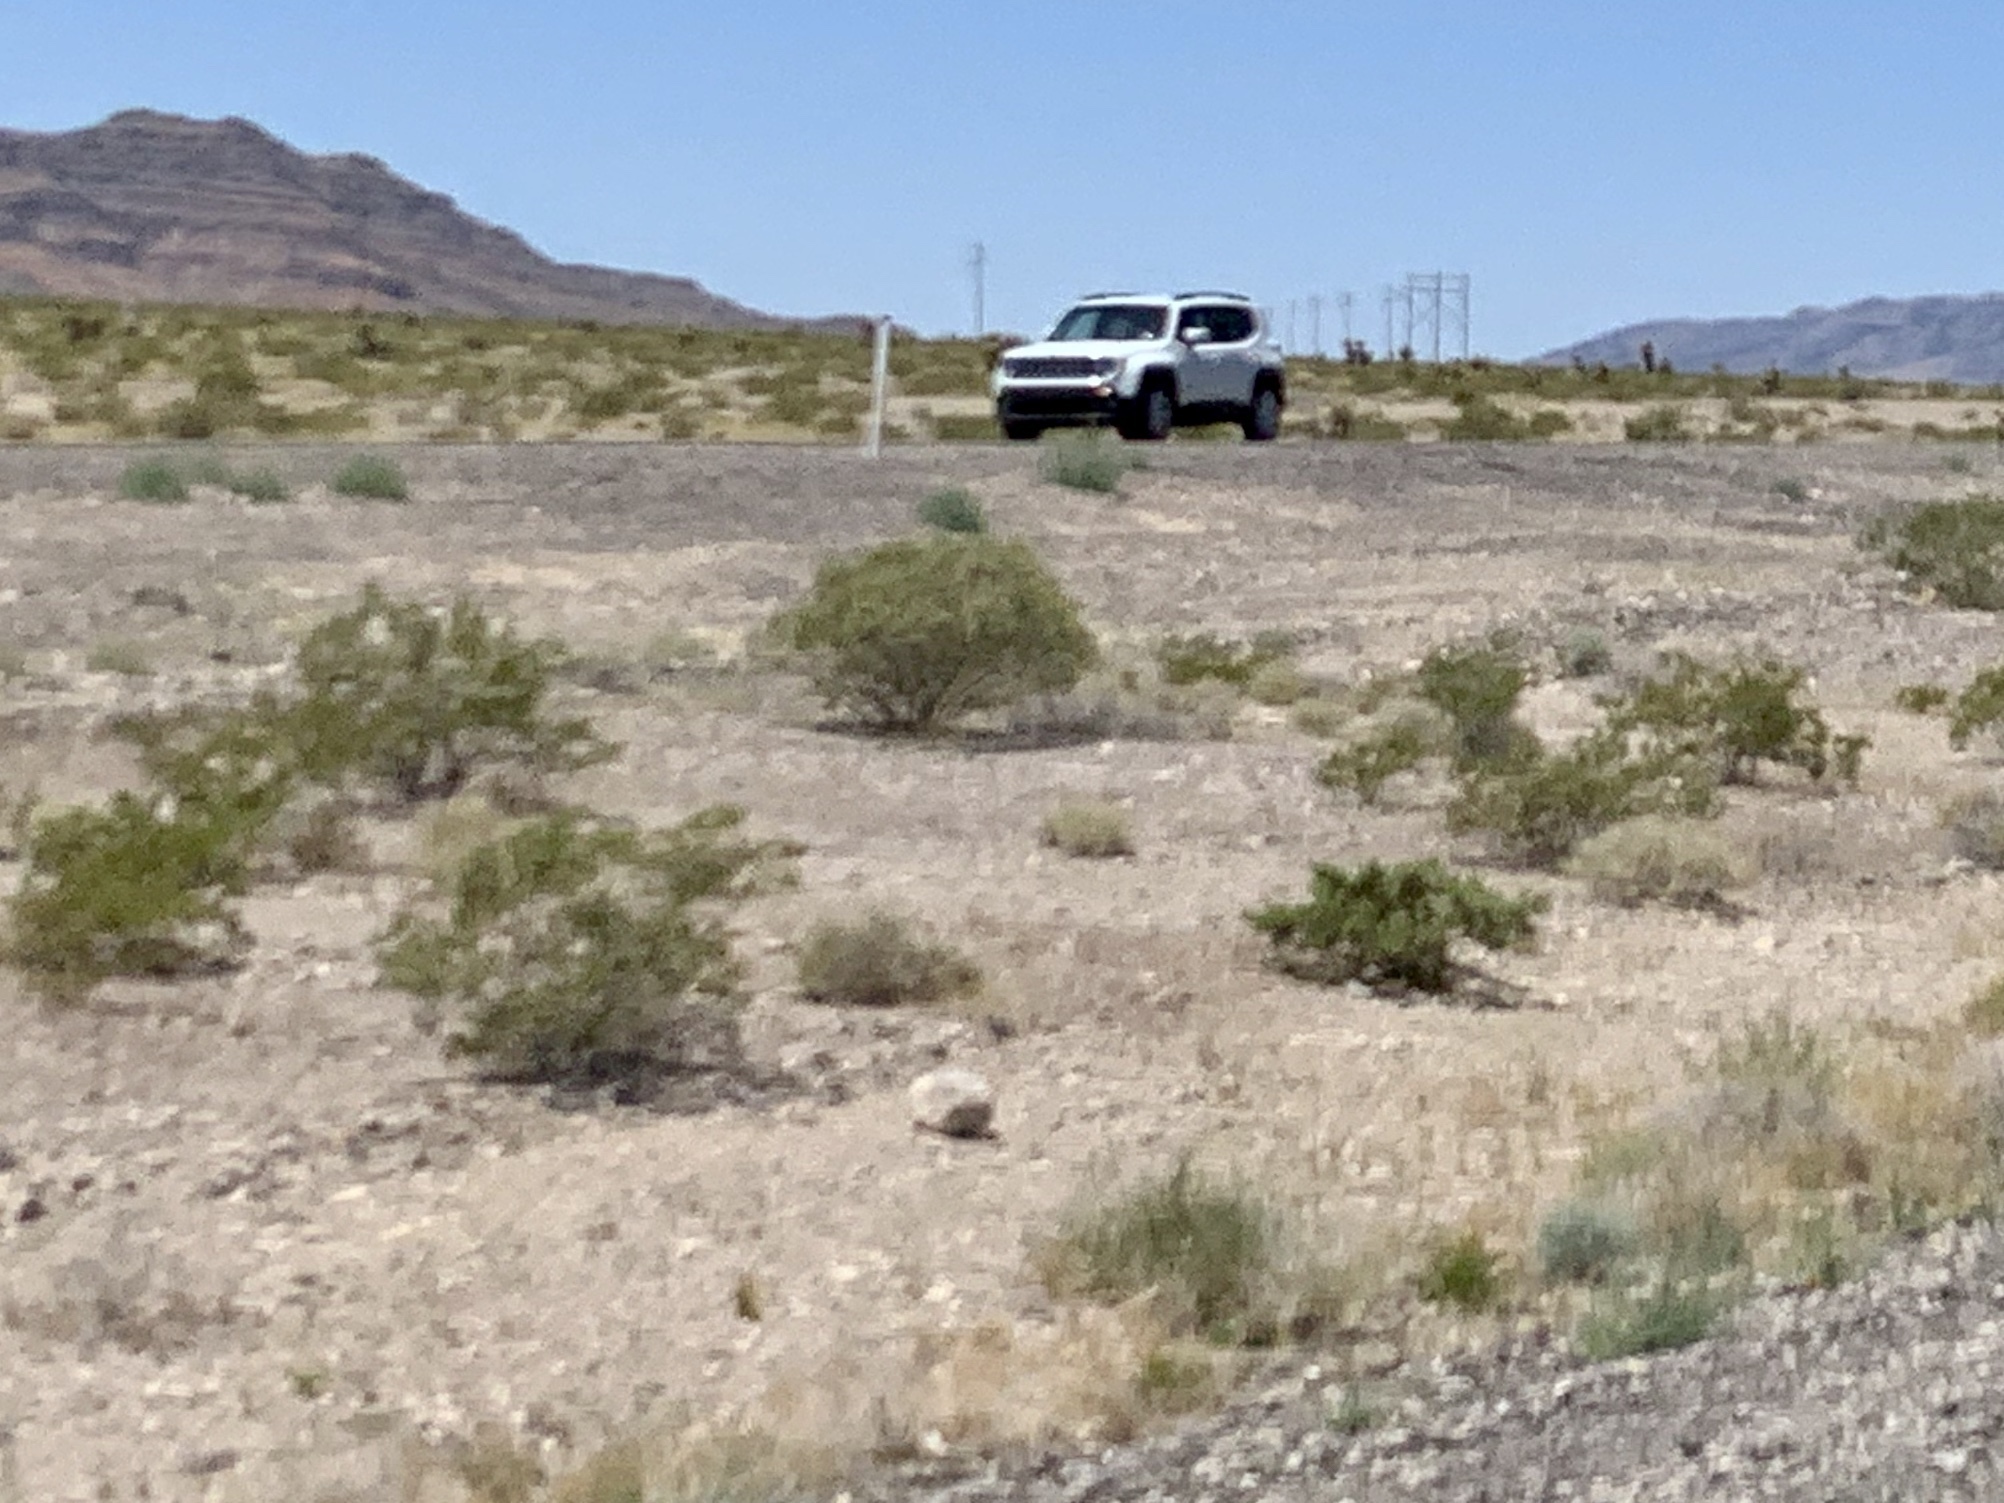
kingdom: Plantae
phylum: Tracheophyta
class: Magnoliopsida
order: Zygophyllales
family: Zygophyllaceae
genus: Larrea
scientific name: Larrea tridentata
